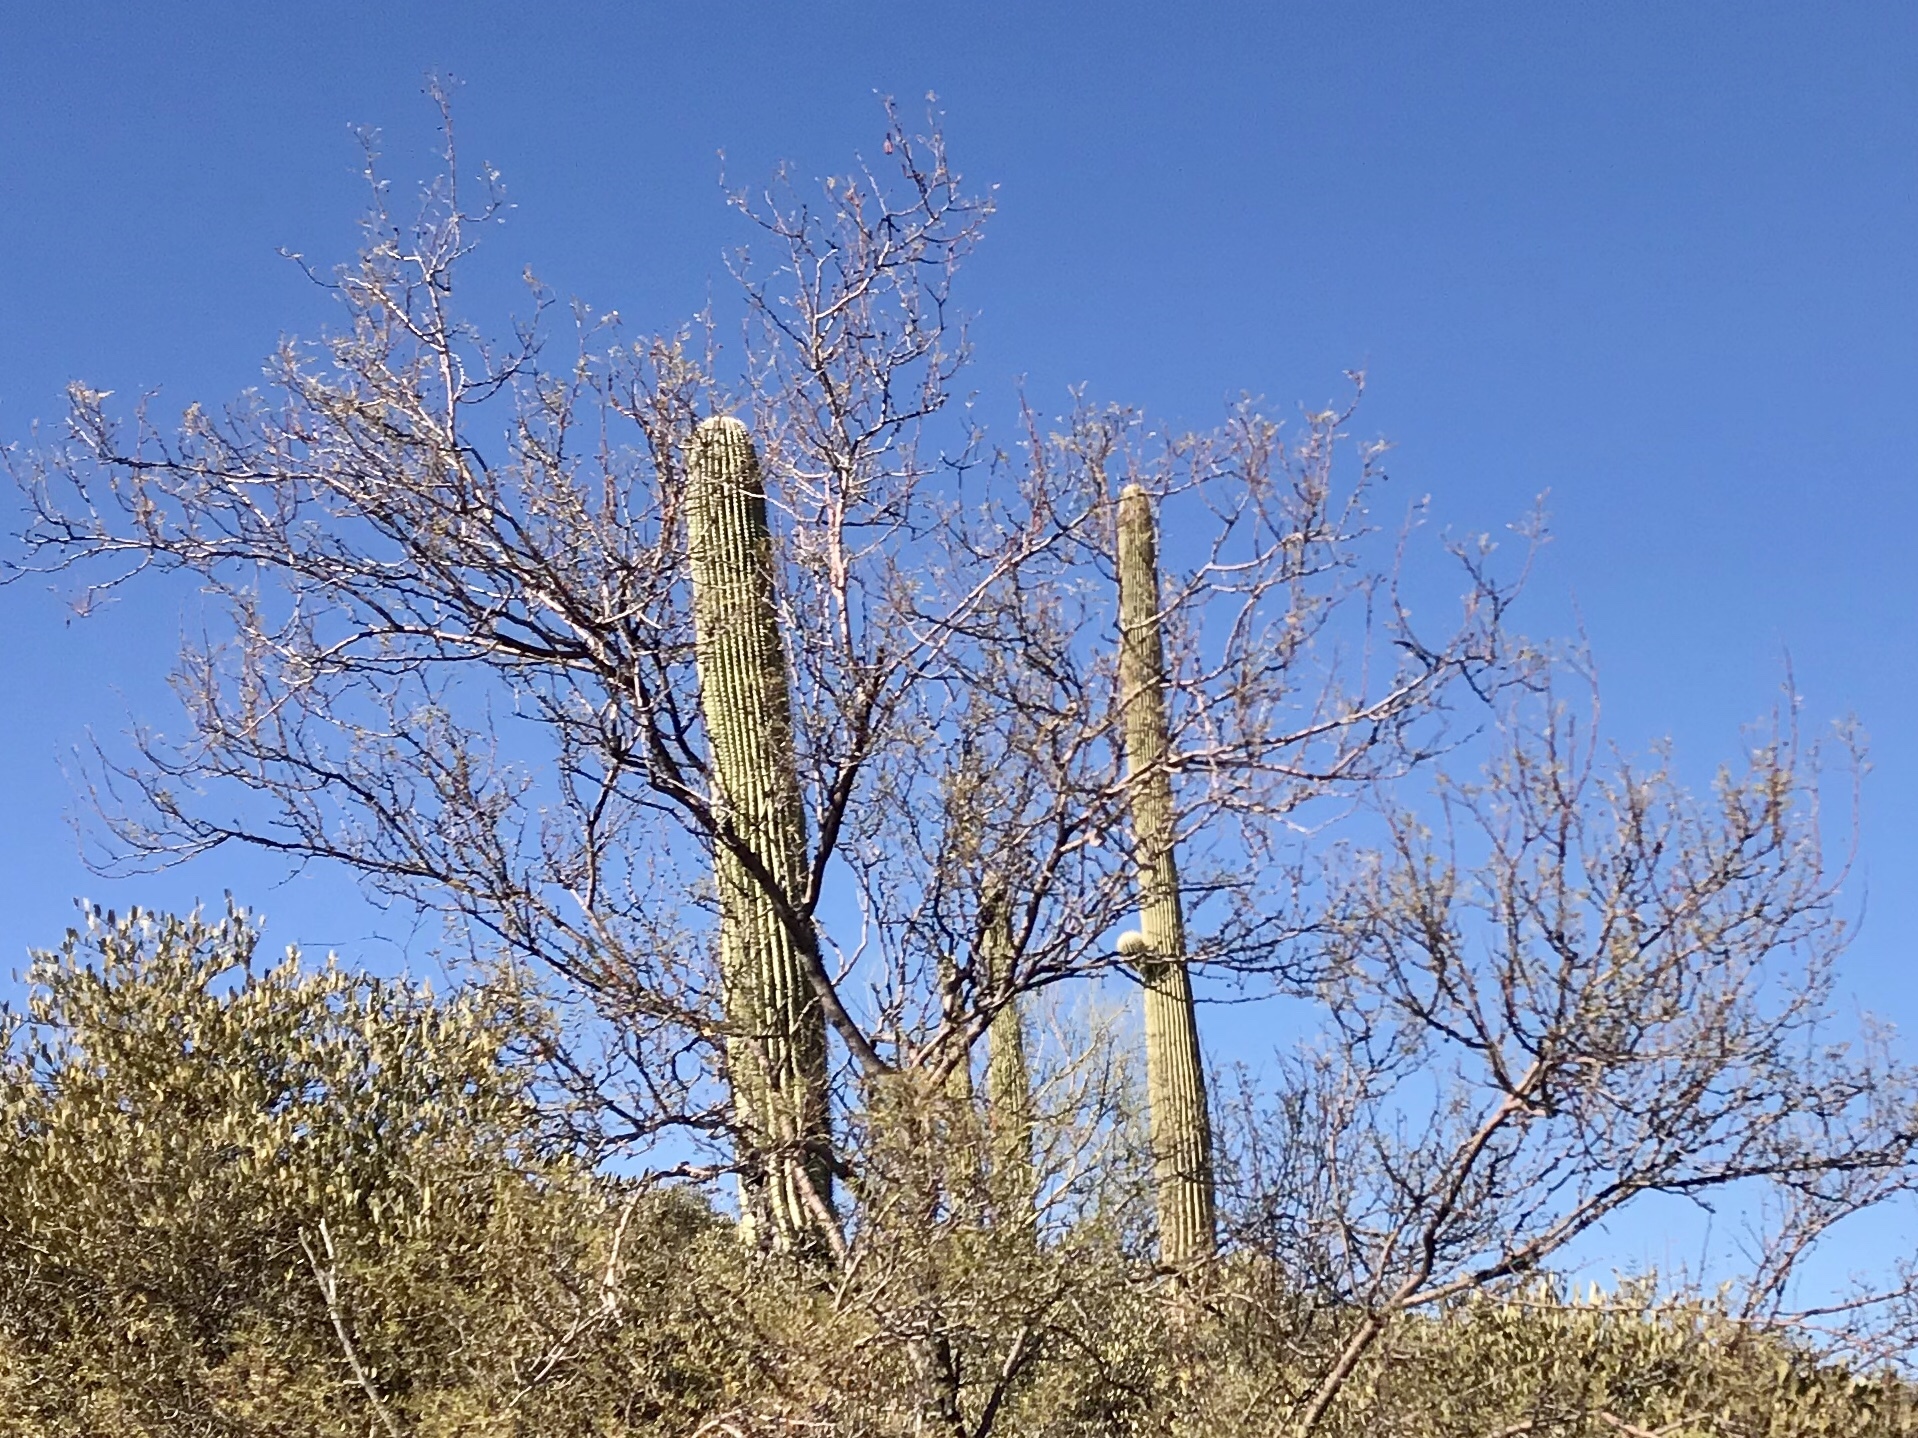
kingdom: Plantae
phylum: Tracheophyta
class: Magnoliopsida
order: Fabales
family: Fabaceae
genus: Vachellia
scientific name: Vachellia constricta
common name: Mescat acacia
